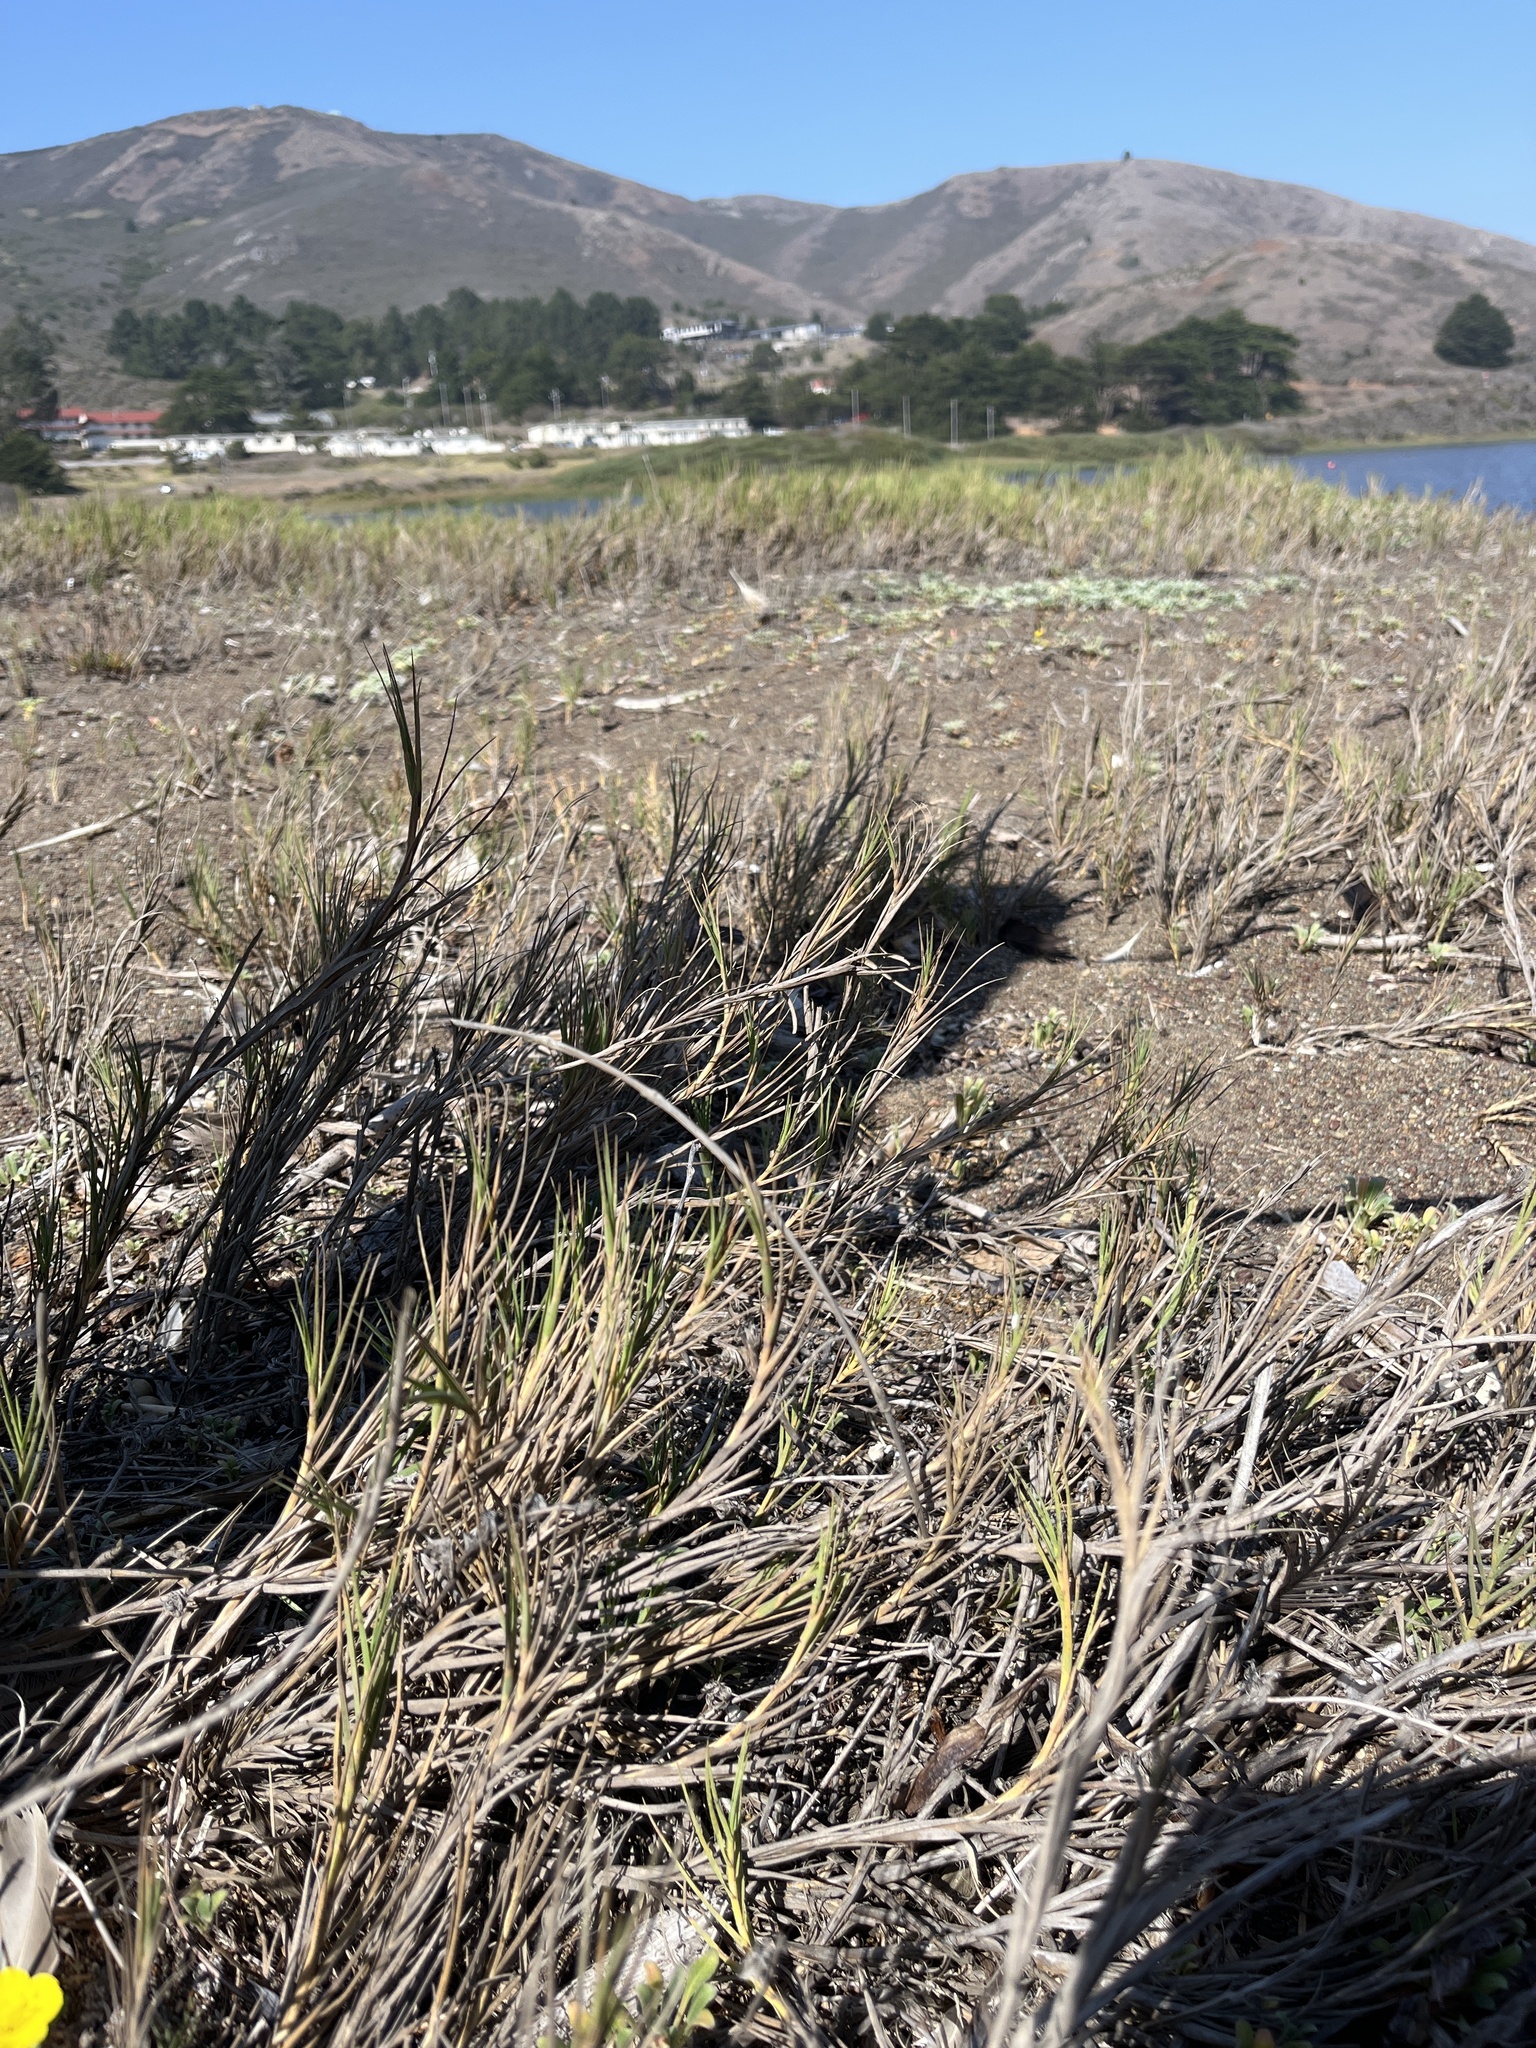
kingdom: Plantae
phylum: Tracheophyta
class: Liliopsida
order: Poales
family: Poaceae
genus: Distichlis
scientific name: Distichlis spicata
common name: Saltgrass
